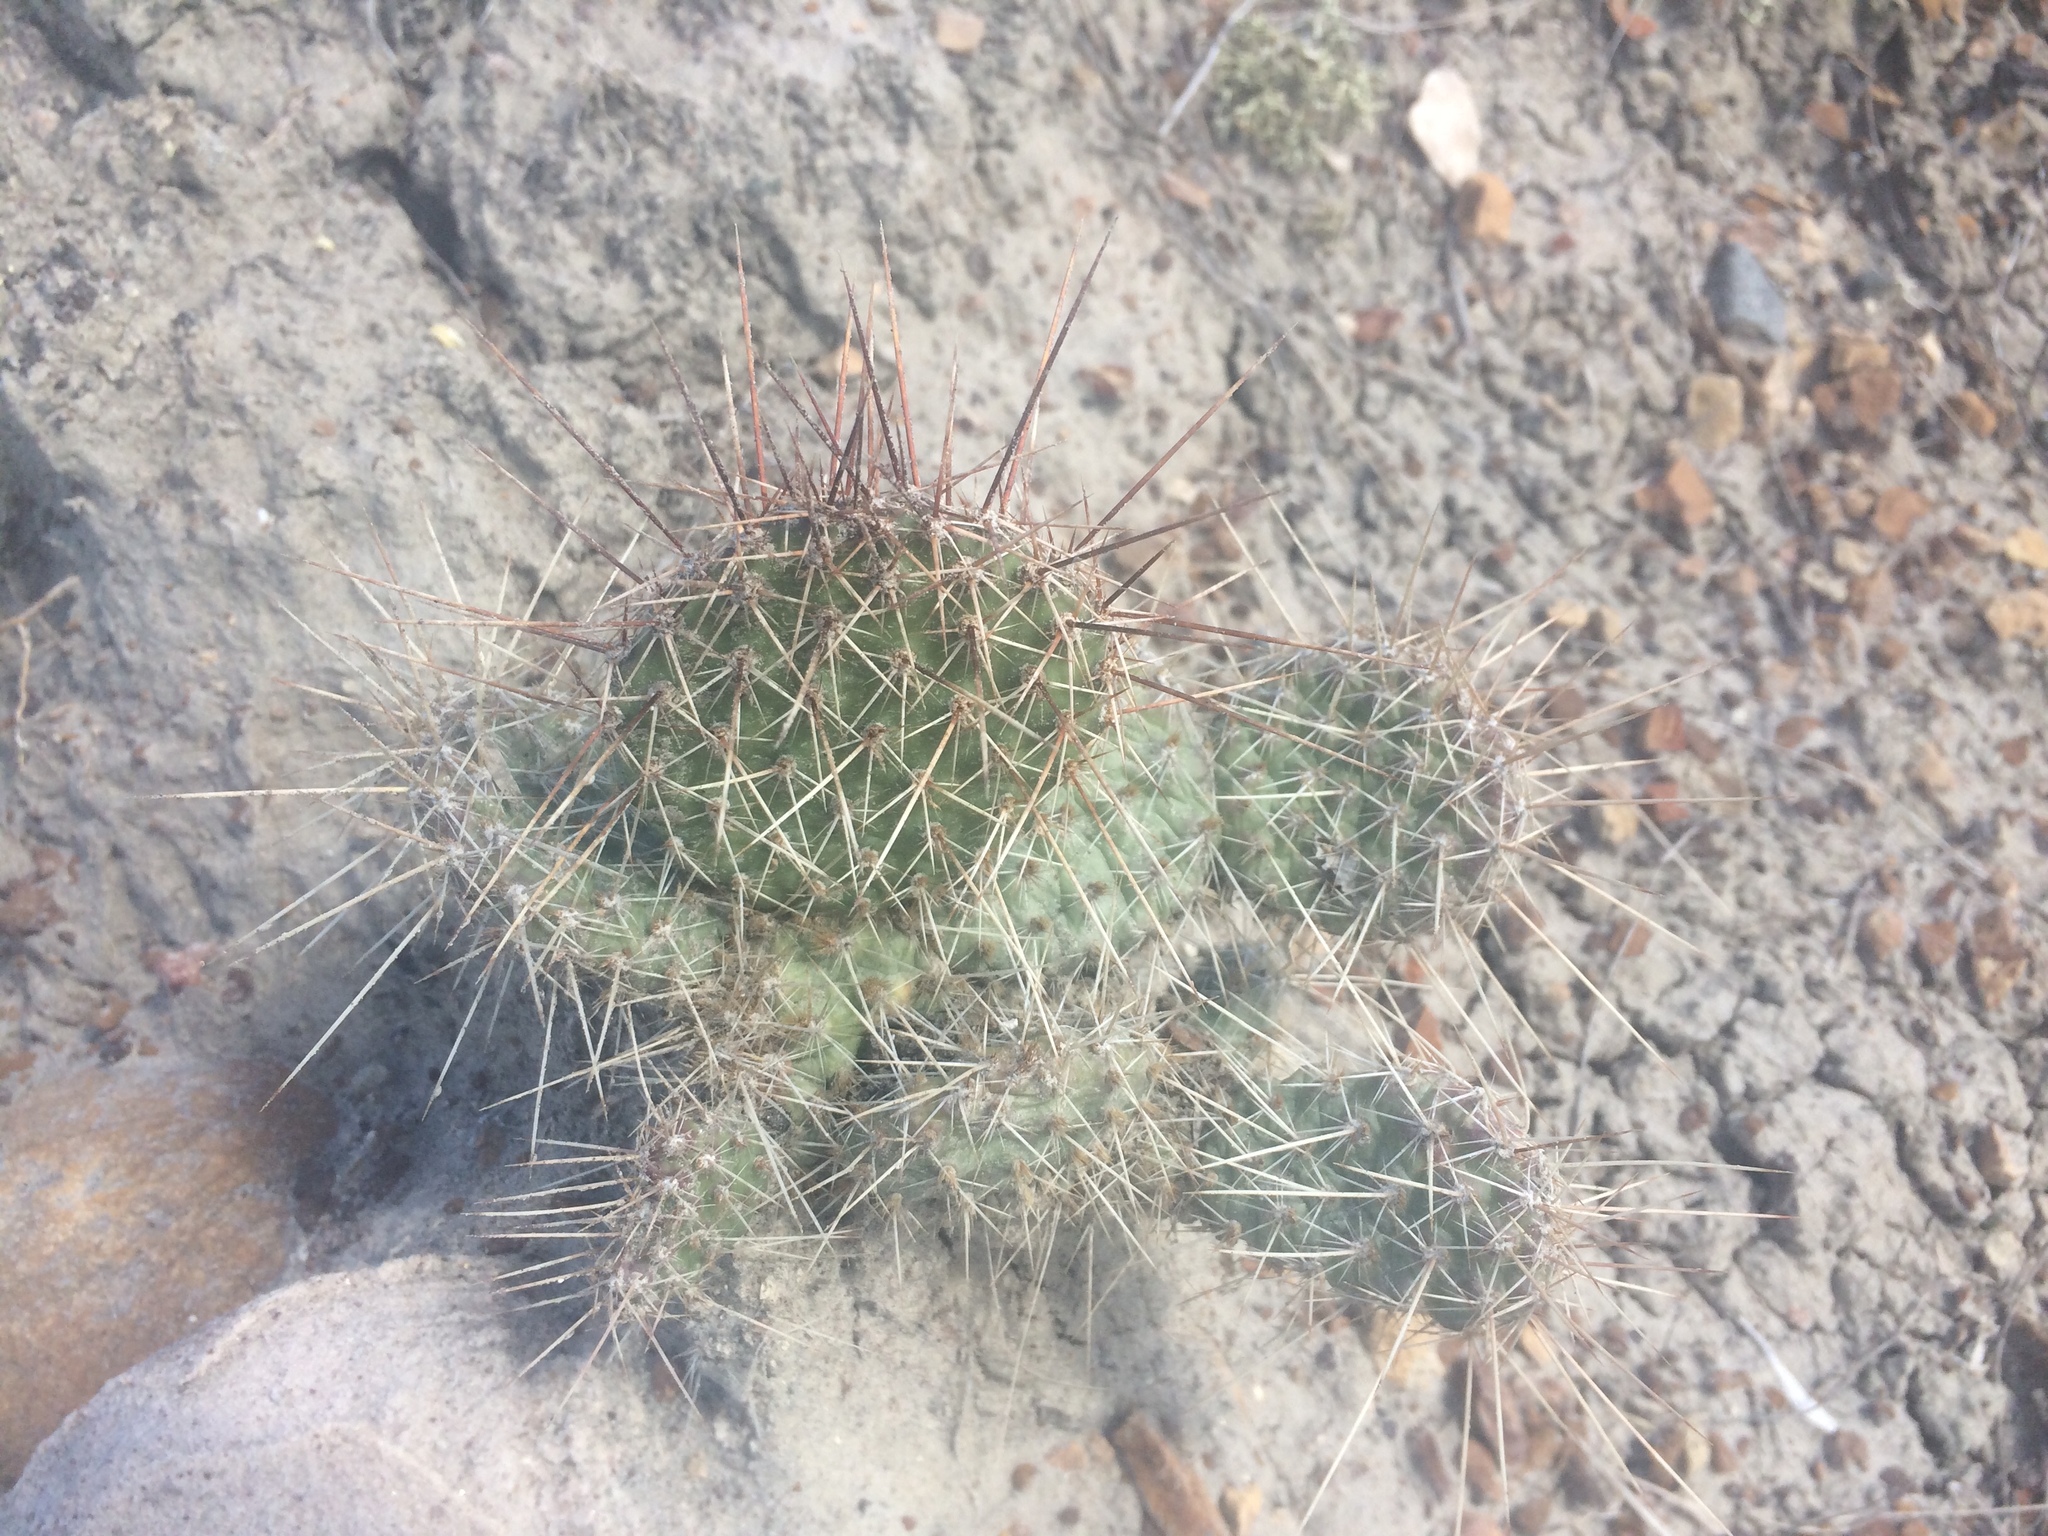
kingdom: Plantae
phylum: Tracheophyta
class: Magnoliopsida
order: Caryophyllales
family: Cactaceae
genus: Opuntia
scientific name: Opuntia polyacantha
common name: Plains prickly-pear
